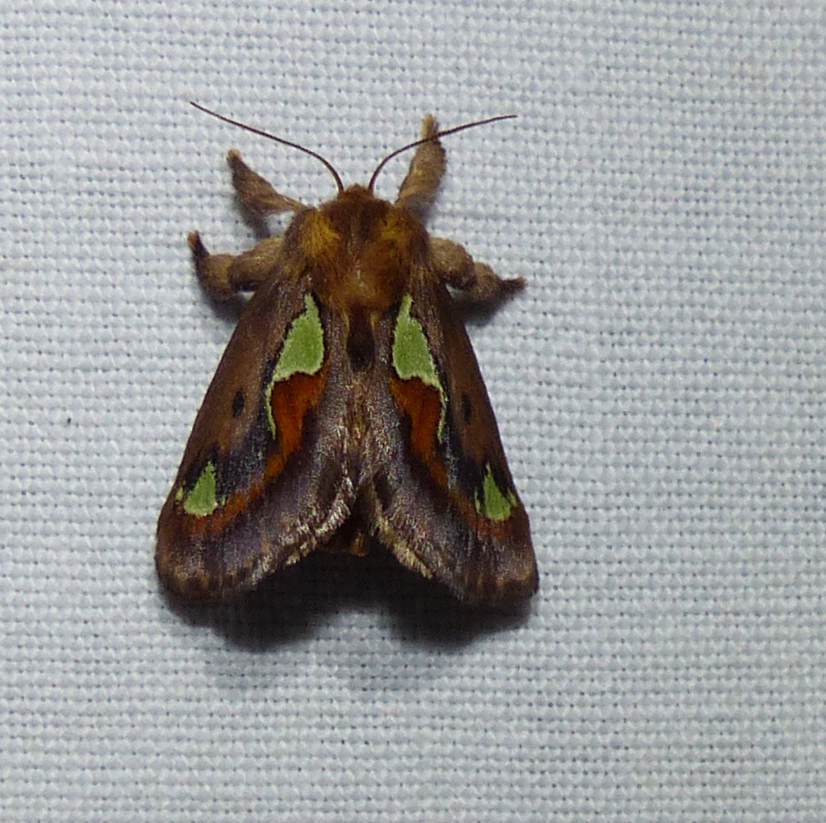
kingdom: Animalia
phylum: Arthropoda
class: Insecta
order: Lepidoptera
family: Limacodidae
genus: Euclea
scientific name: Euclea delphinii
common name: Spiny oak-slug moth
